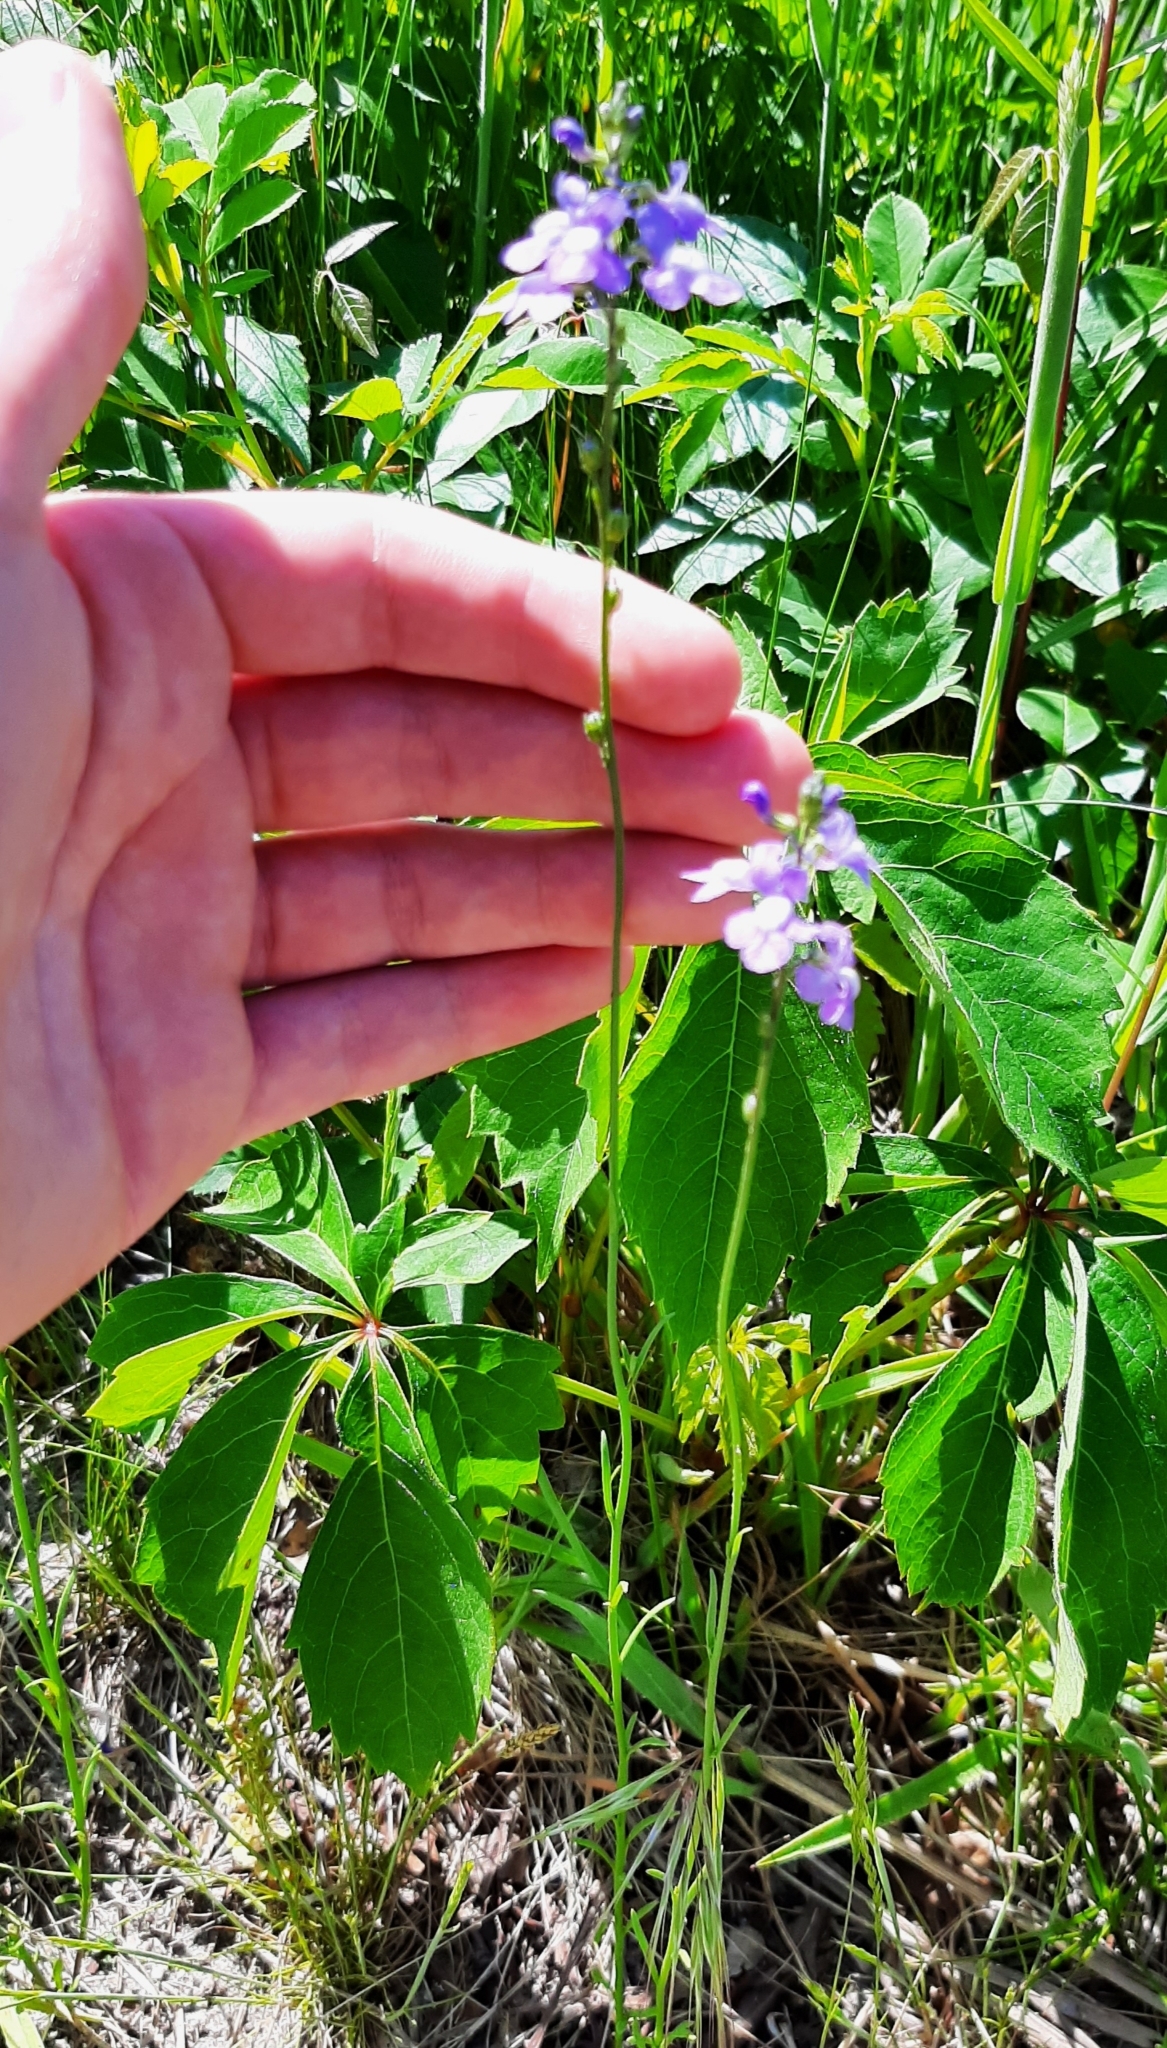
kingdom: Plantae
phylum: Tracheophyta
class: Magnoliopsida
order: Lamiales
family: Plantaginaceae
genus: Nuttallanthus
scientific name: Nuttallanthus canadensis
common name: Blue toadflax
